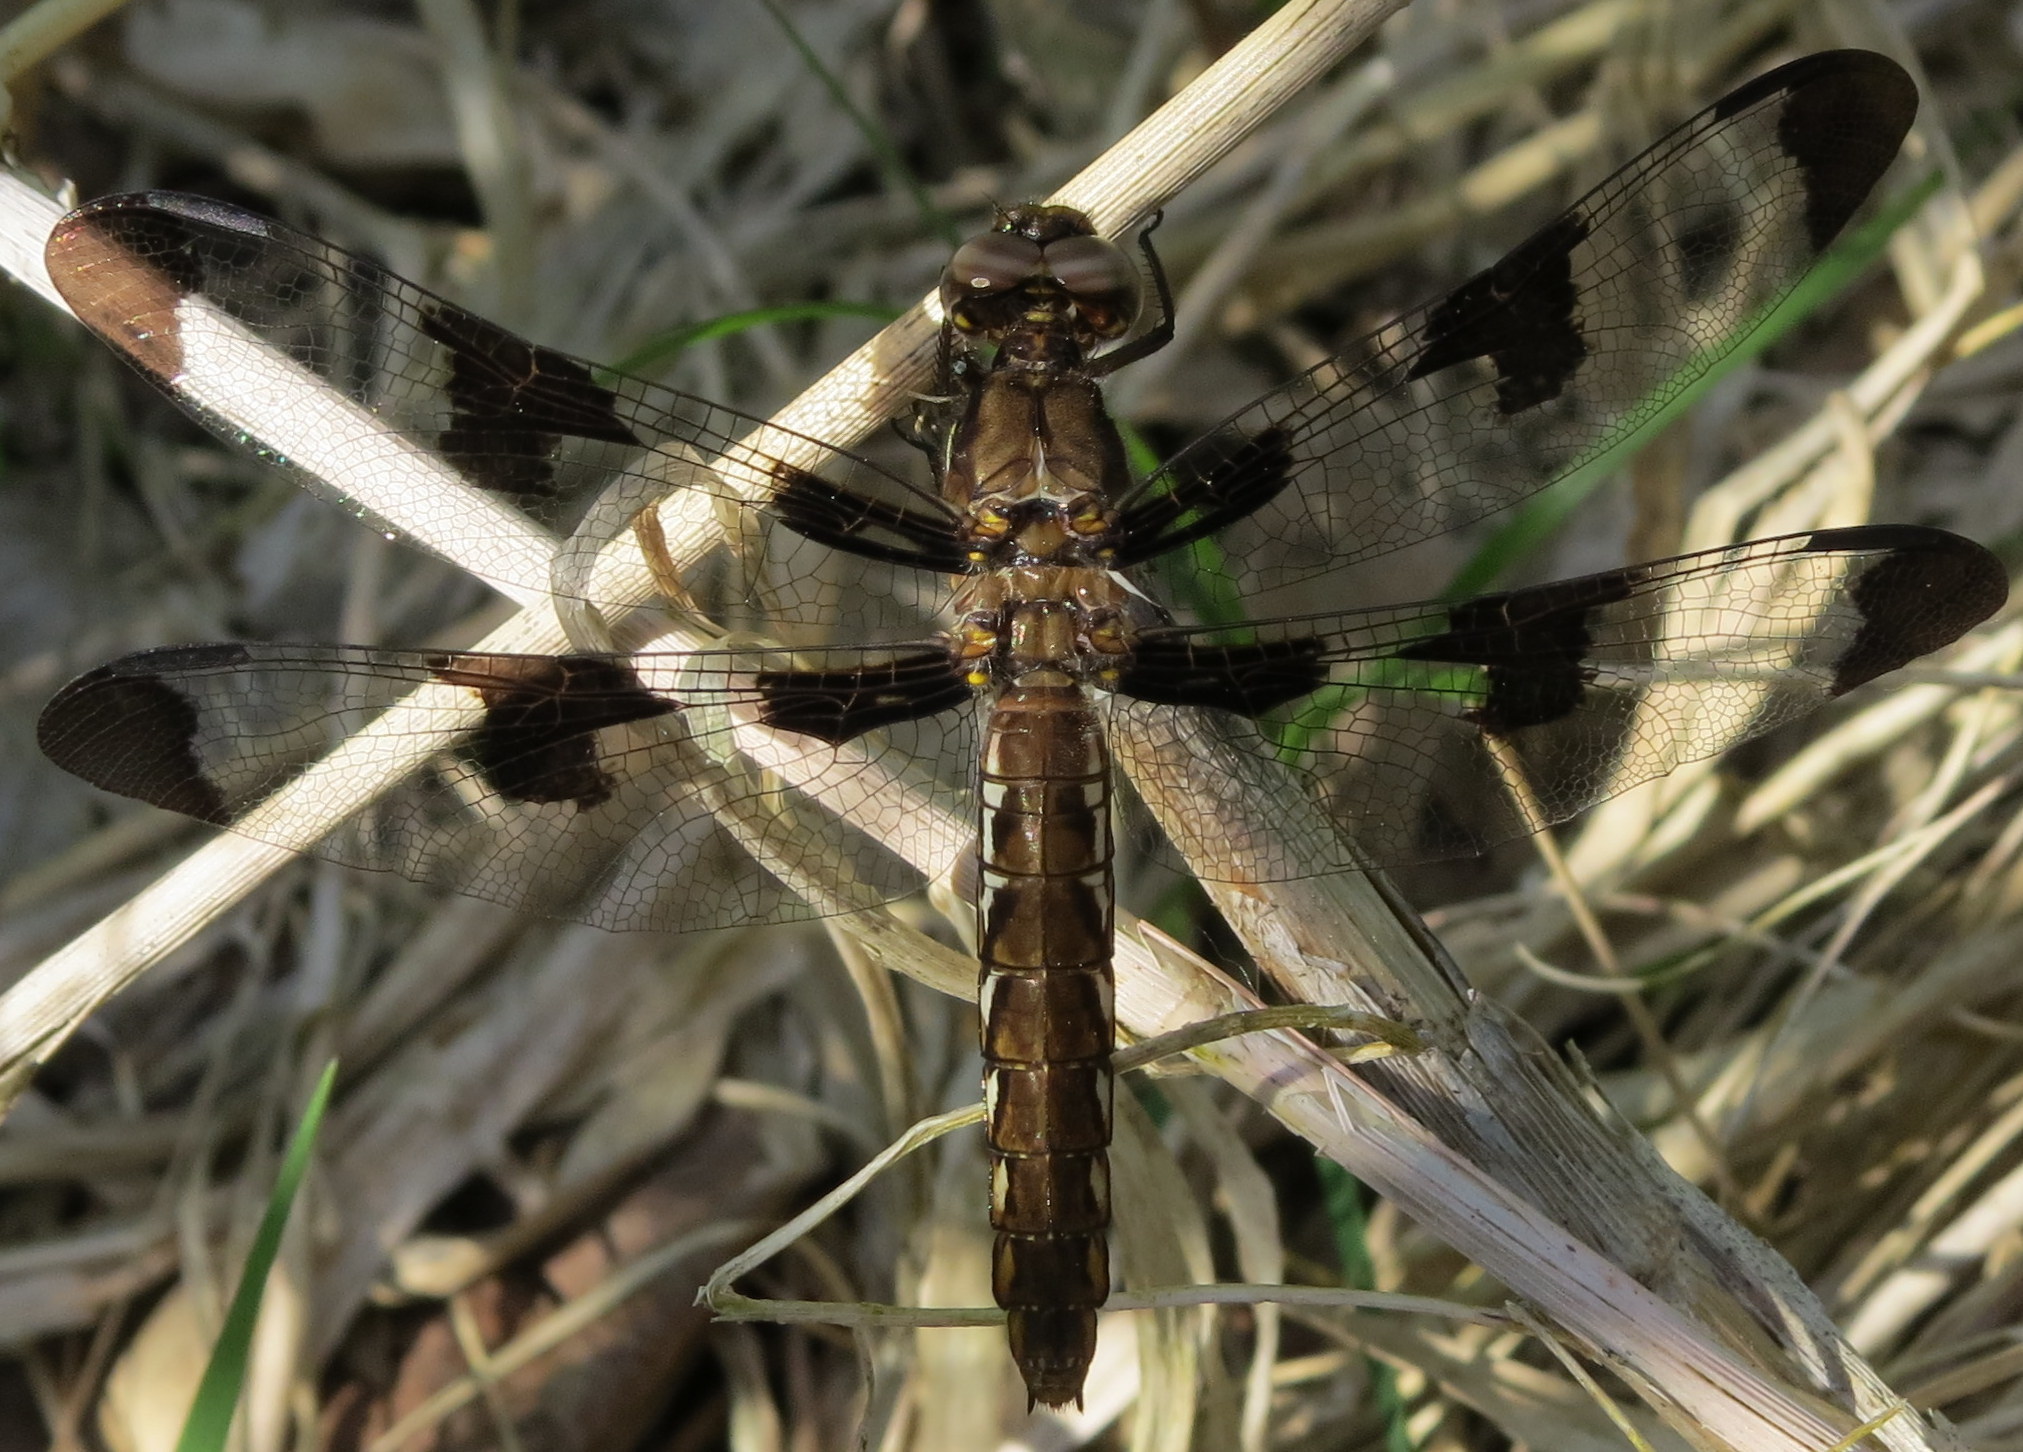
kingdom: Animalia
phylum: Arthropoda
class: Insecta
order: Odonata
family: Libellulidae
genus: Plathemis
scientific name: Plathemis lydia
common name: Common whitetail
